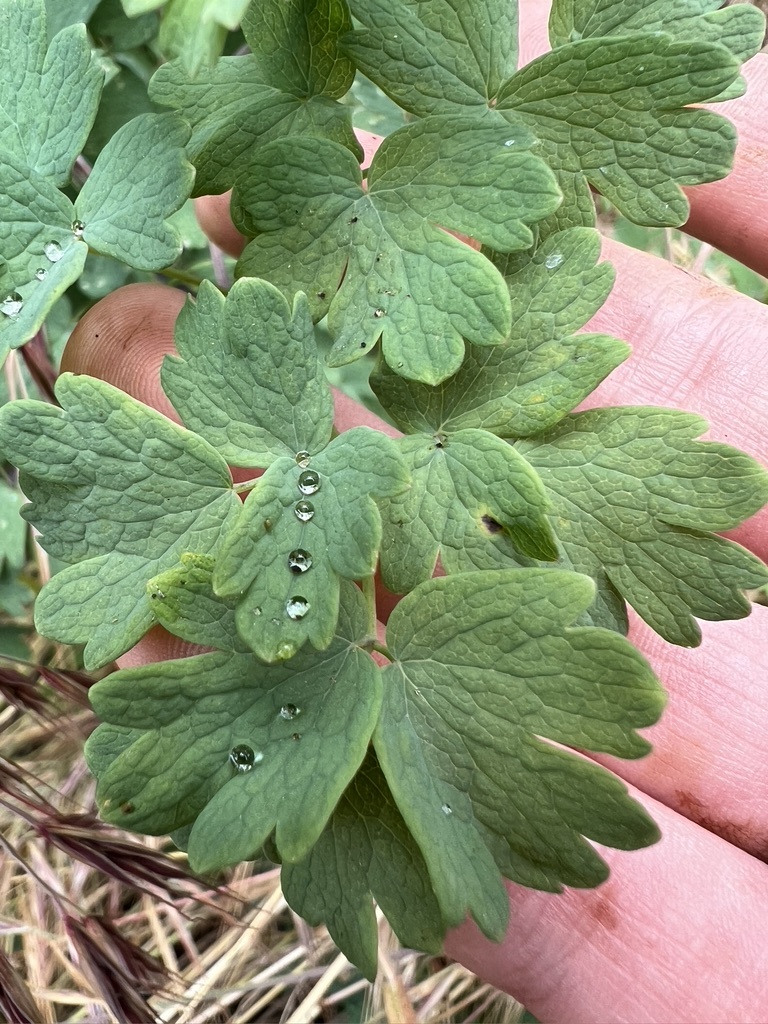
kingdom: Plantae
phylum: Tracheophyta
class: Magnoliopsida
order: Ranunculales
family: Ranunculaceae
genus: Thalictrum
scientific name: Thalictrum fendleri
